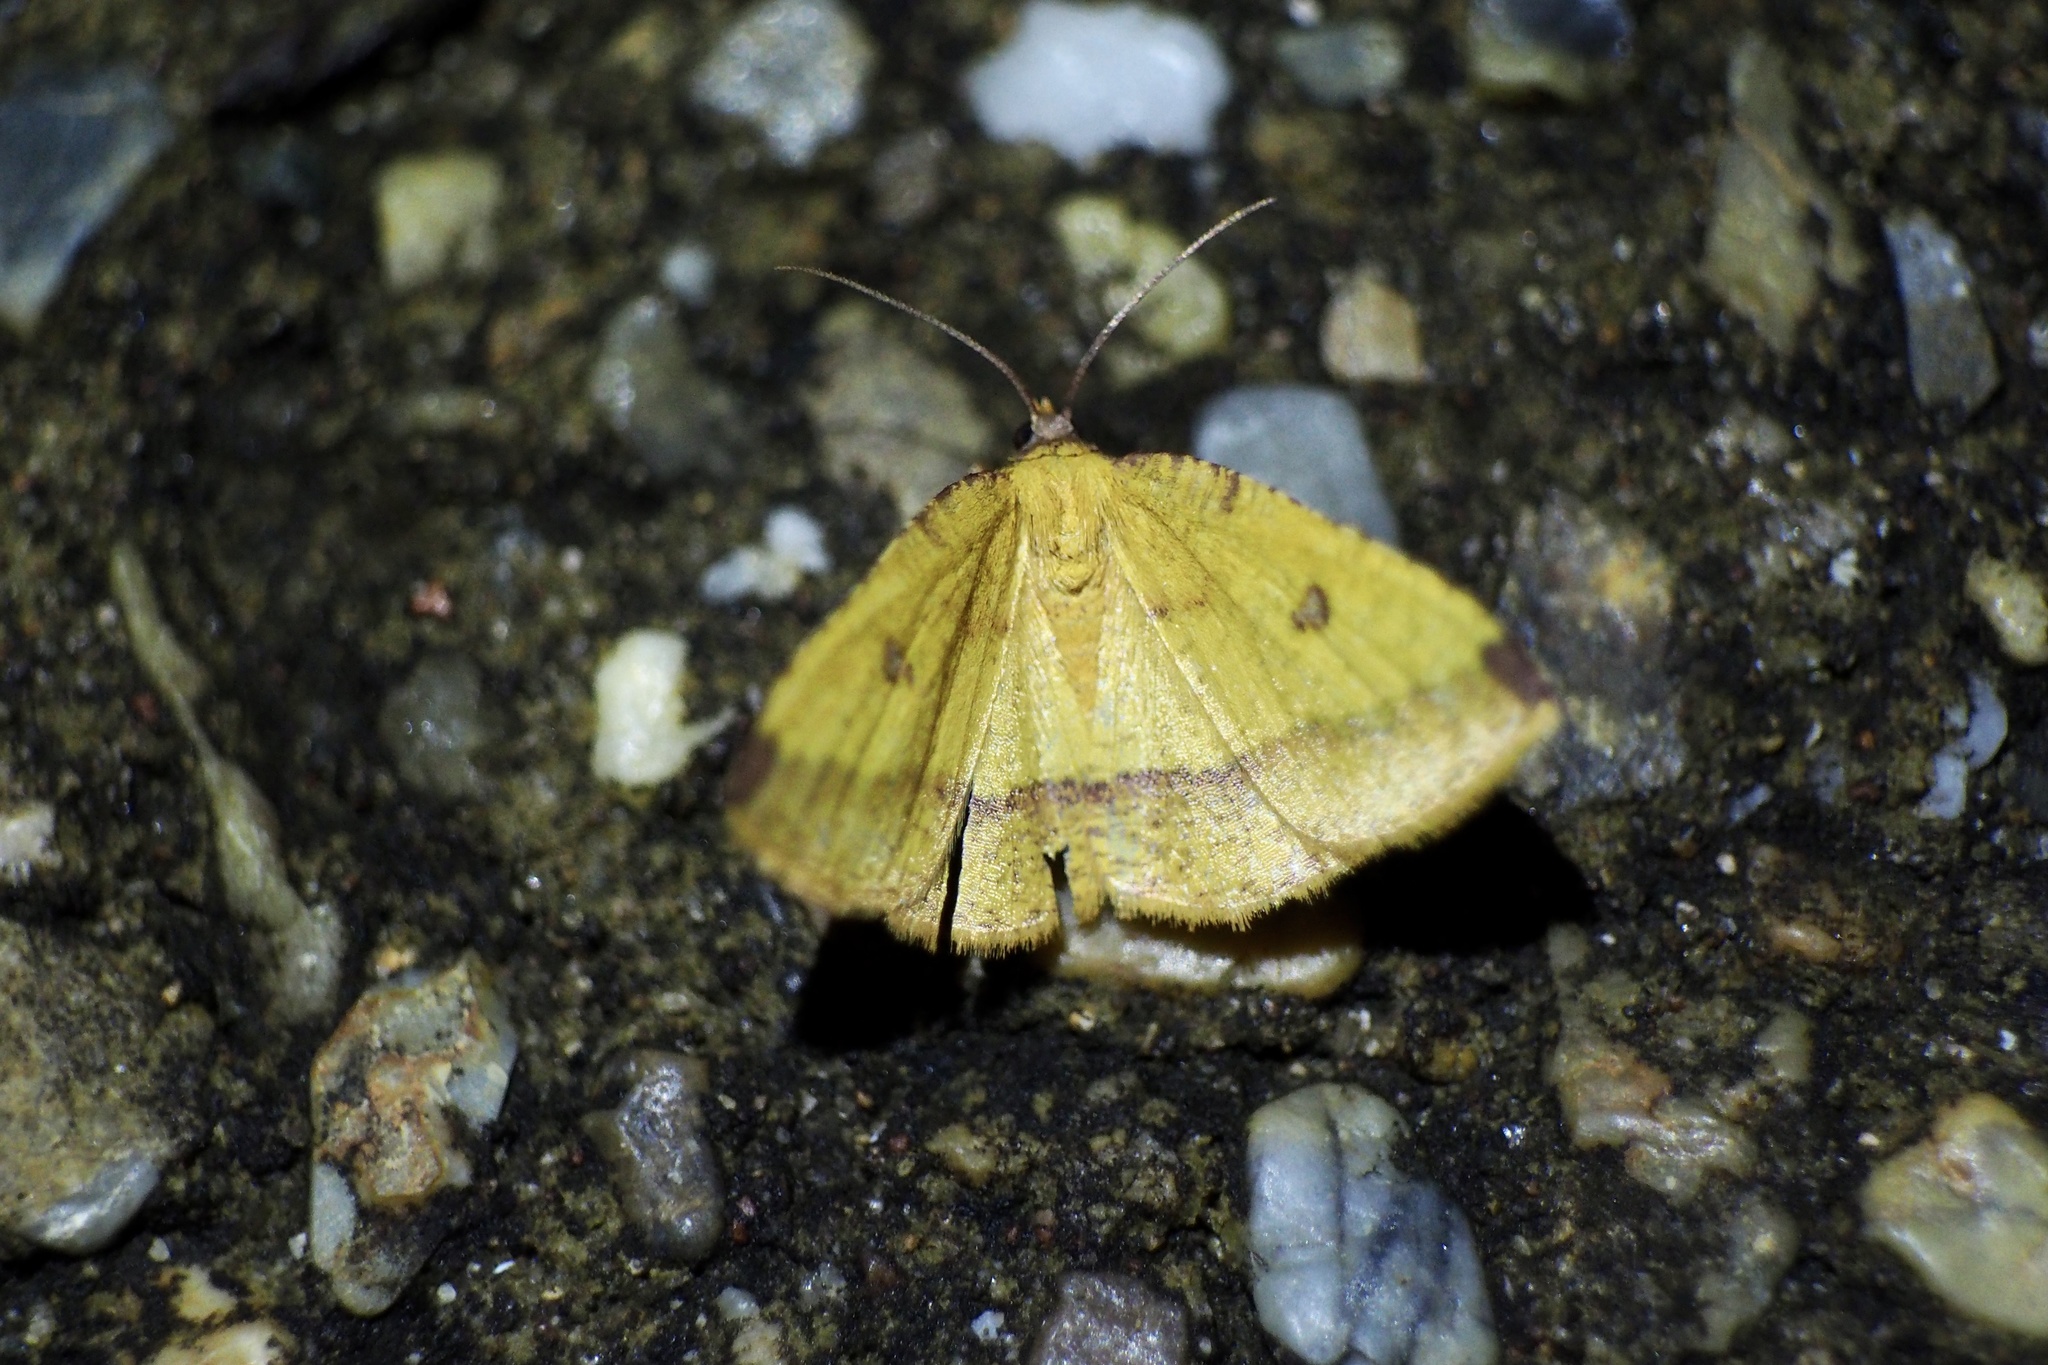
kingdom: Animalia
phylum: Arthropoda
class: Insecta
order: Lepidoptera
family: Geometridae
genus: Heterolocha
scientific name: Heterolocha aristonaria
